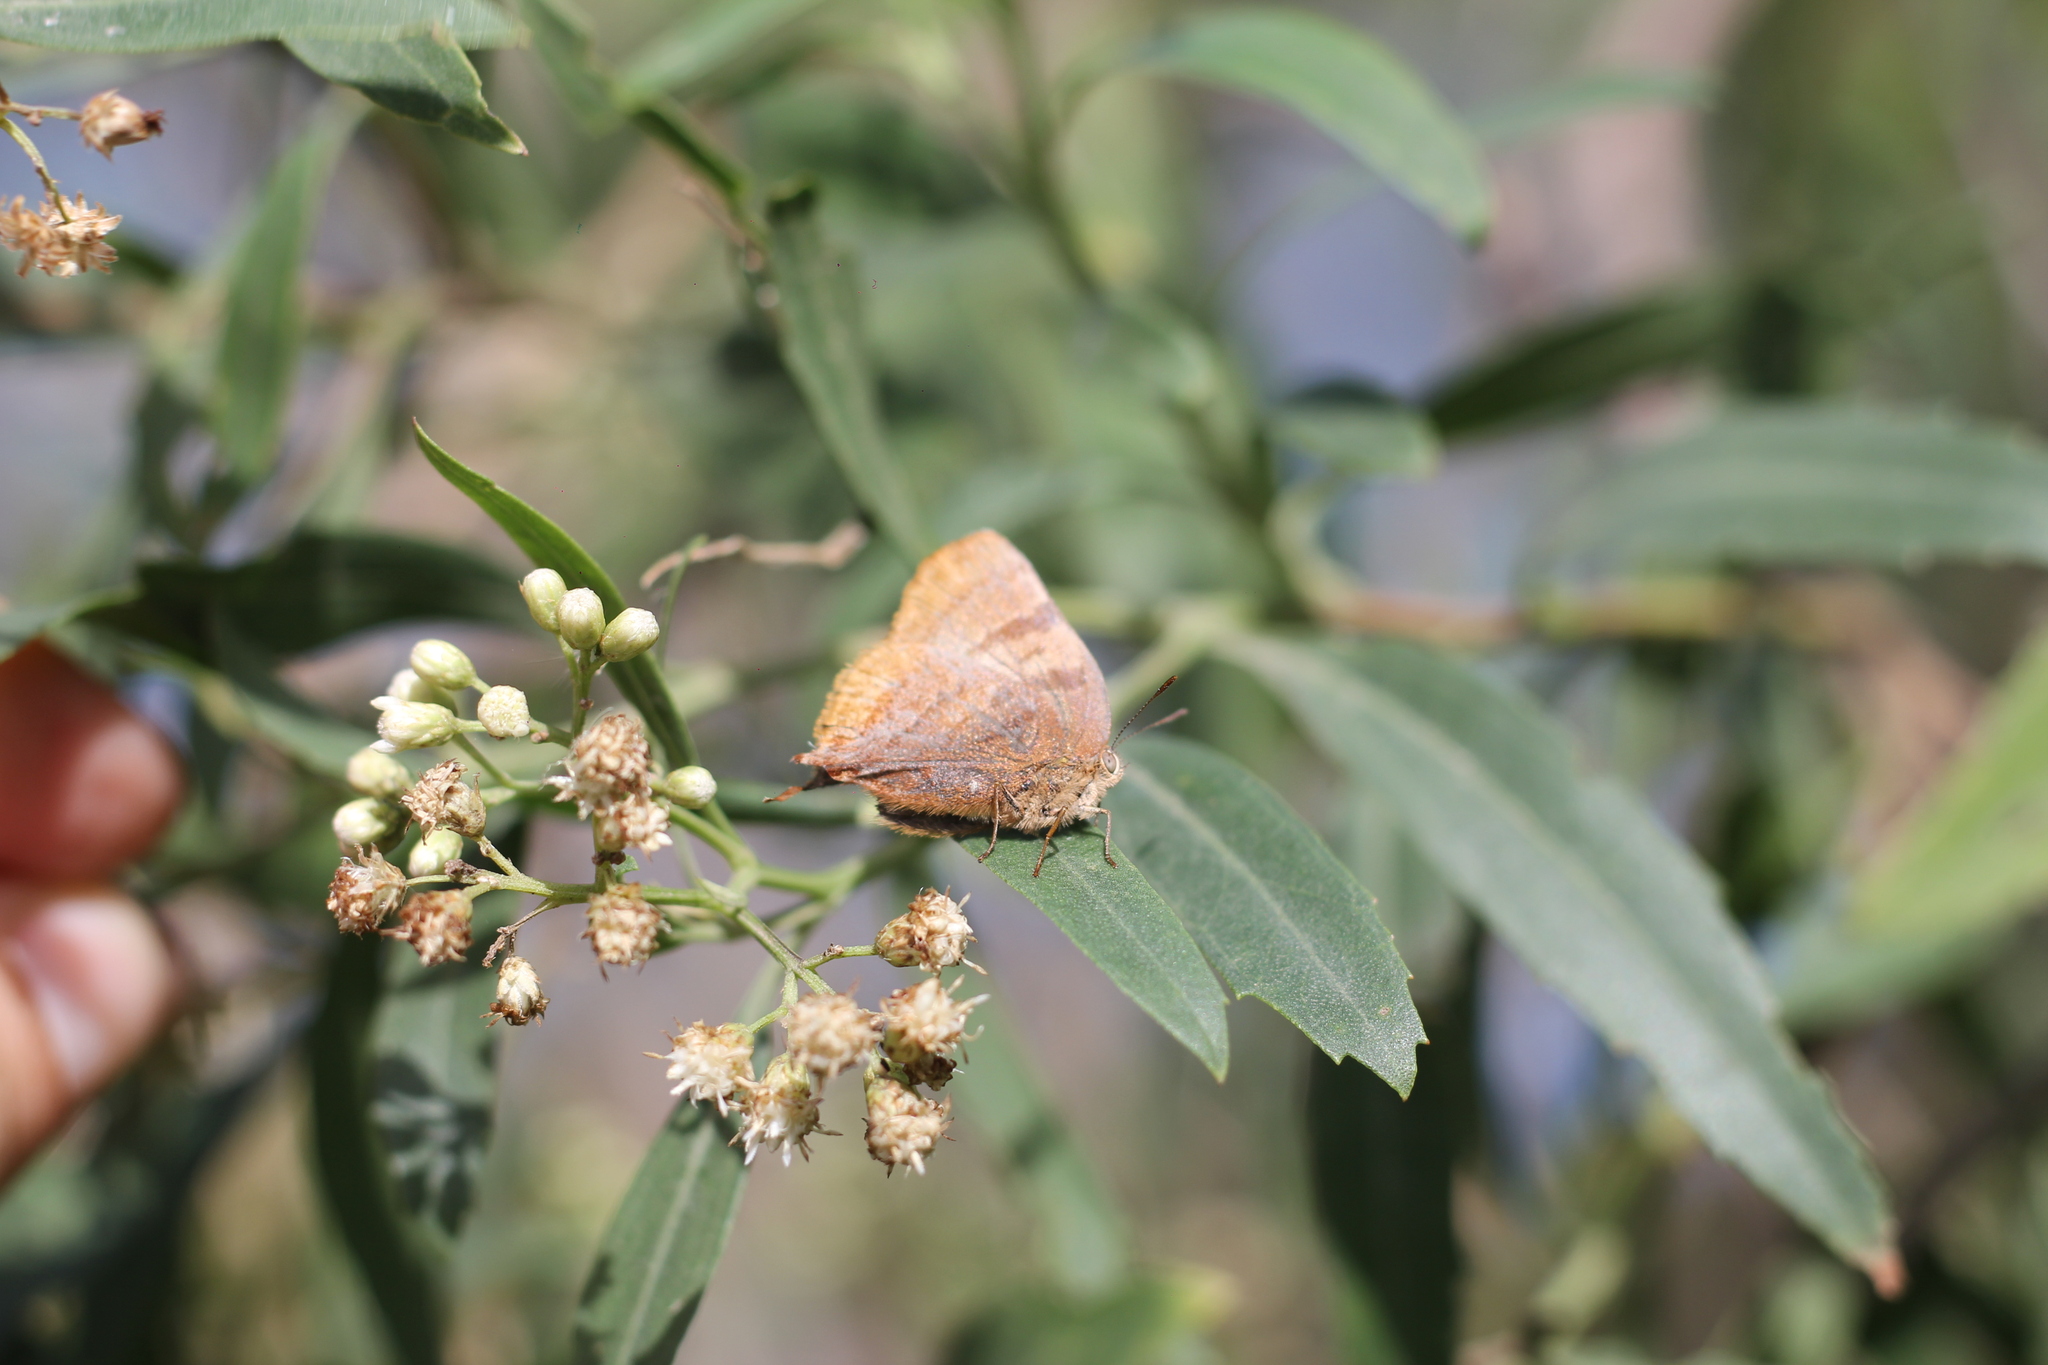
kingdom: Animalia
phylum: Arthropoda
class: Insecta
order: Lepidoptera
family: Lycaenidae
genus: Thecla
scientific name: Thecla marius
